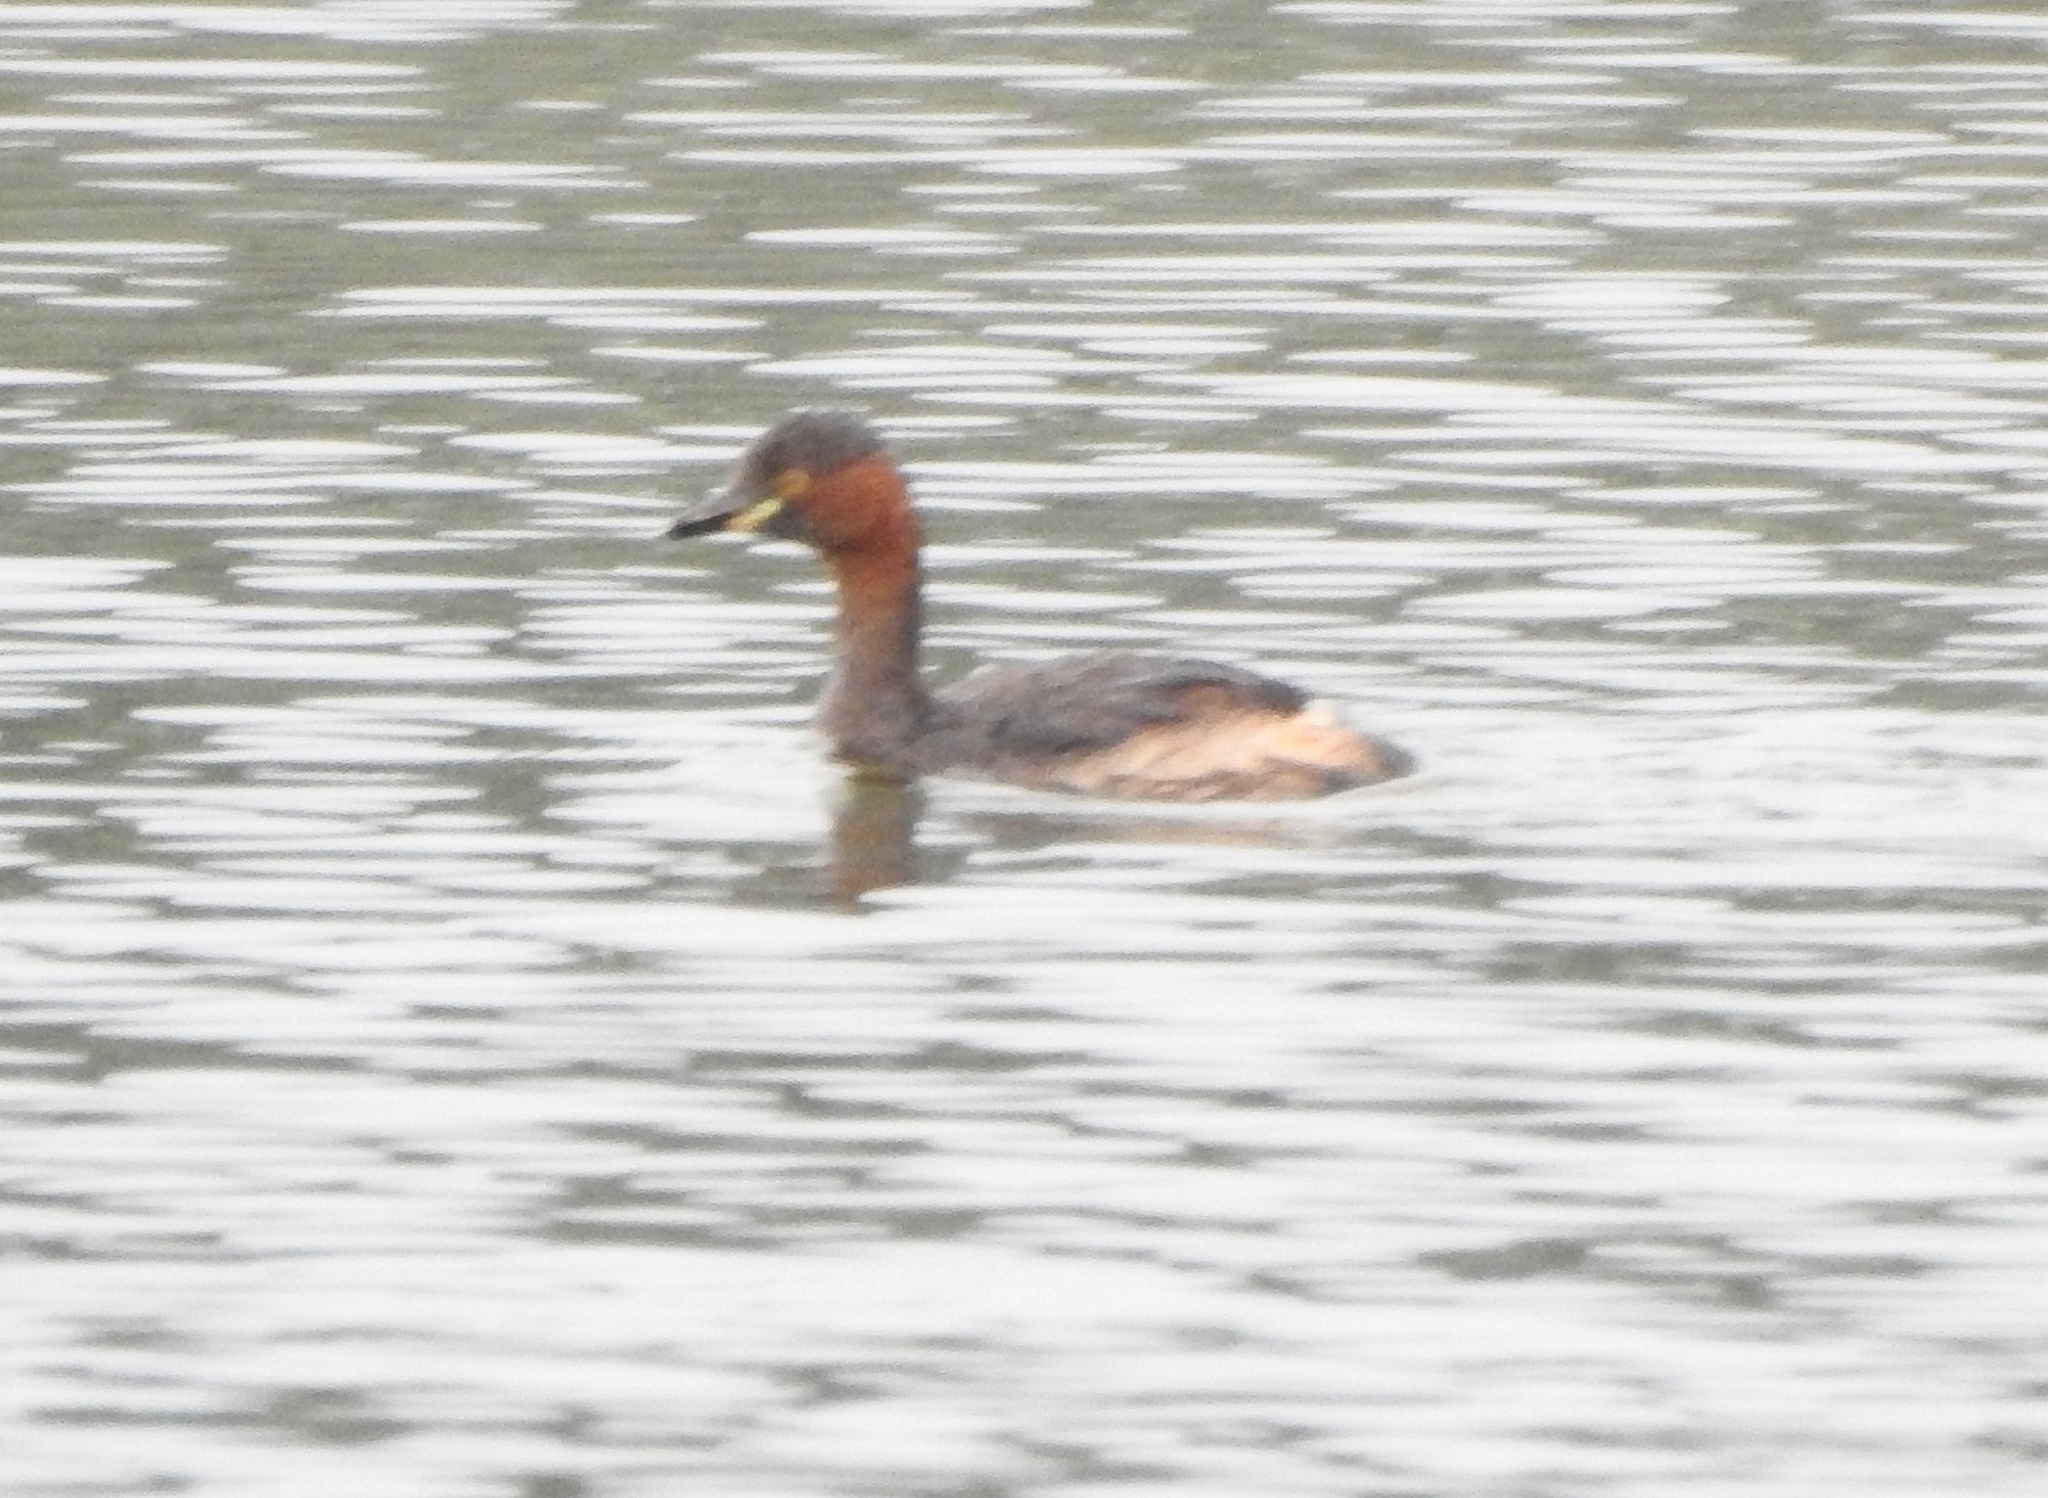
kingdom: Animalia
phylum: Chordata
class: Aves
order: Podicipediformes
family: Podicipedidae
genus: Tachybaptus
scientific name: Tachybaptus ruficollis
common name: Little grebe
